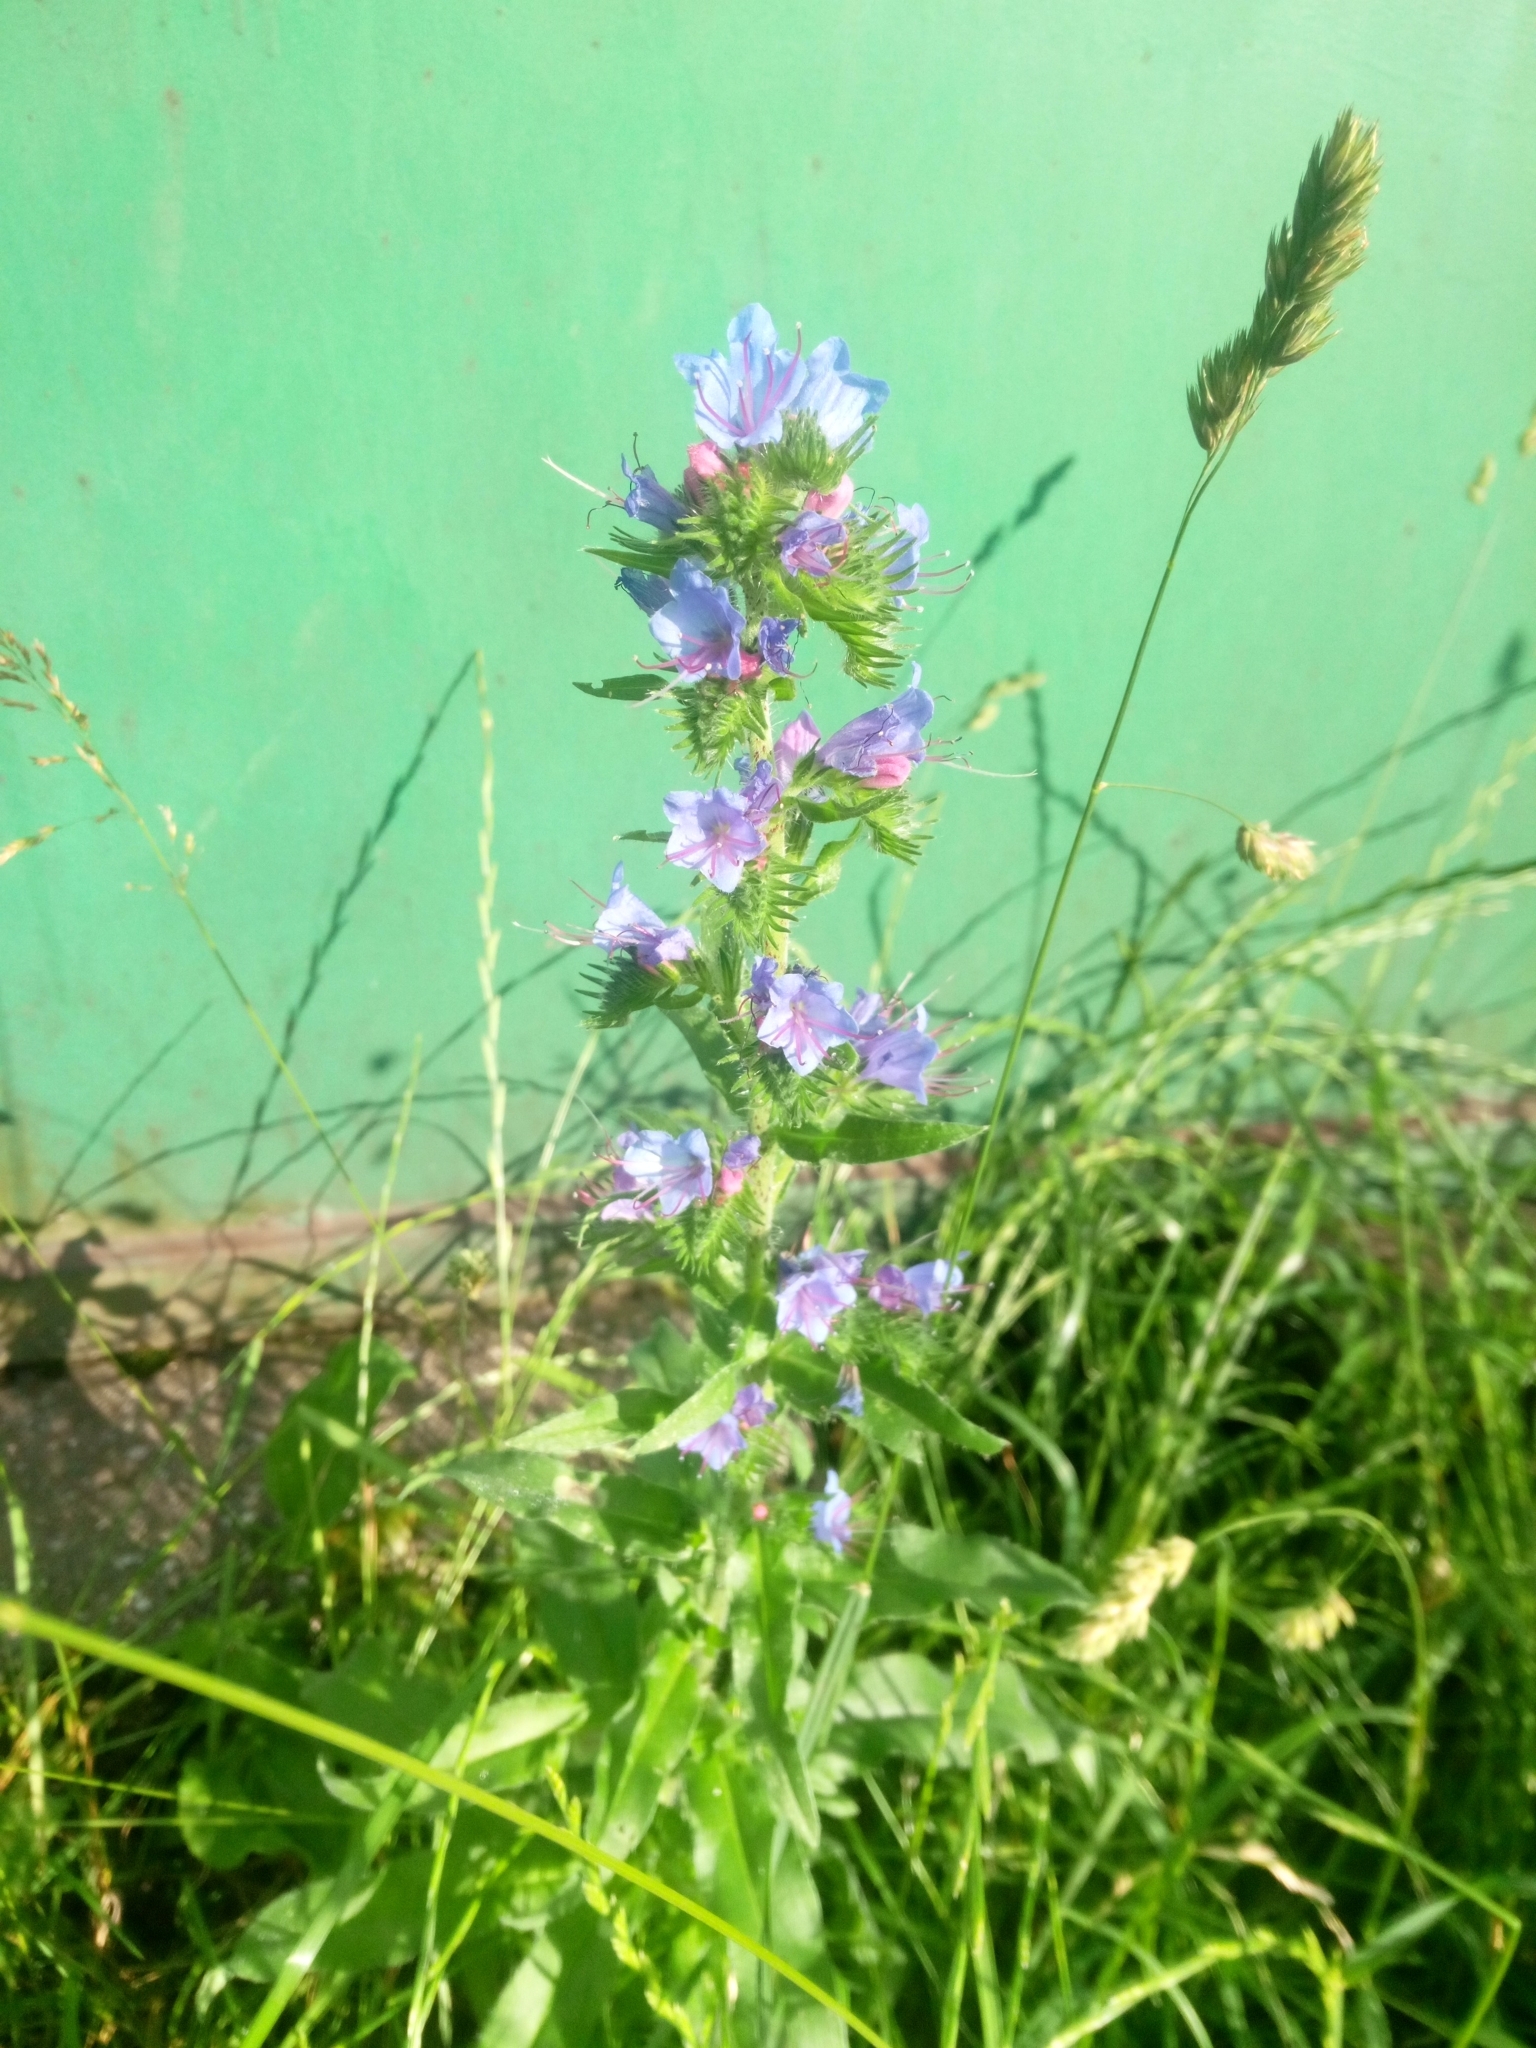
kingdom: Plantae
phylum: Tracheophyta
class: Magnoliopsida
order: Boraginales
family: Boraginaceae
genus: Echium
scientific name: Echium vulgare
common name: Common viper's bugloss
